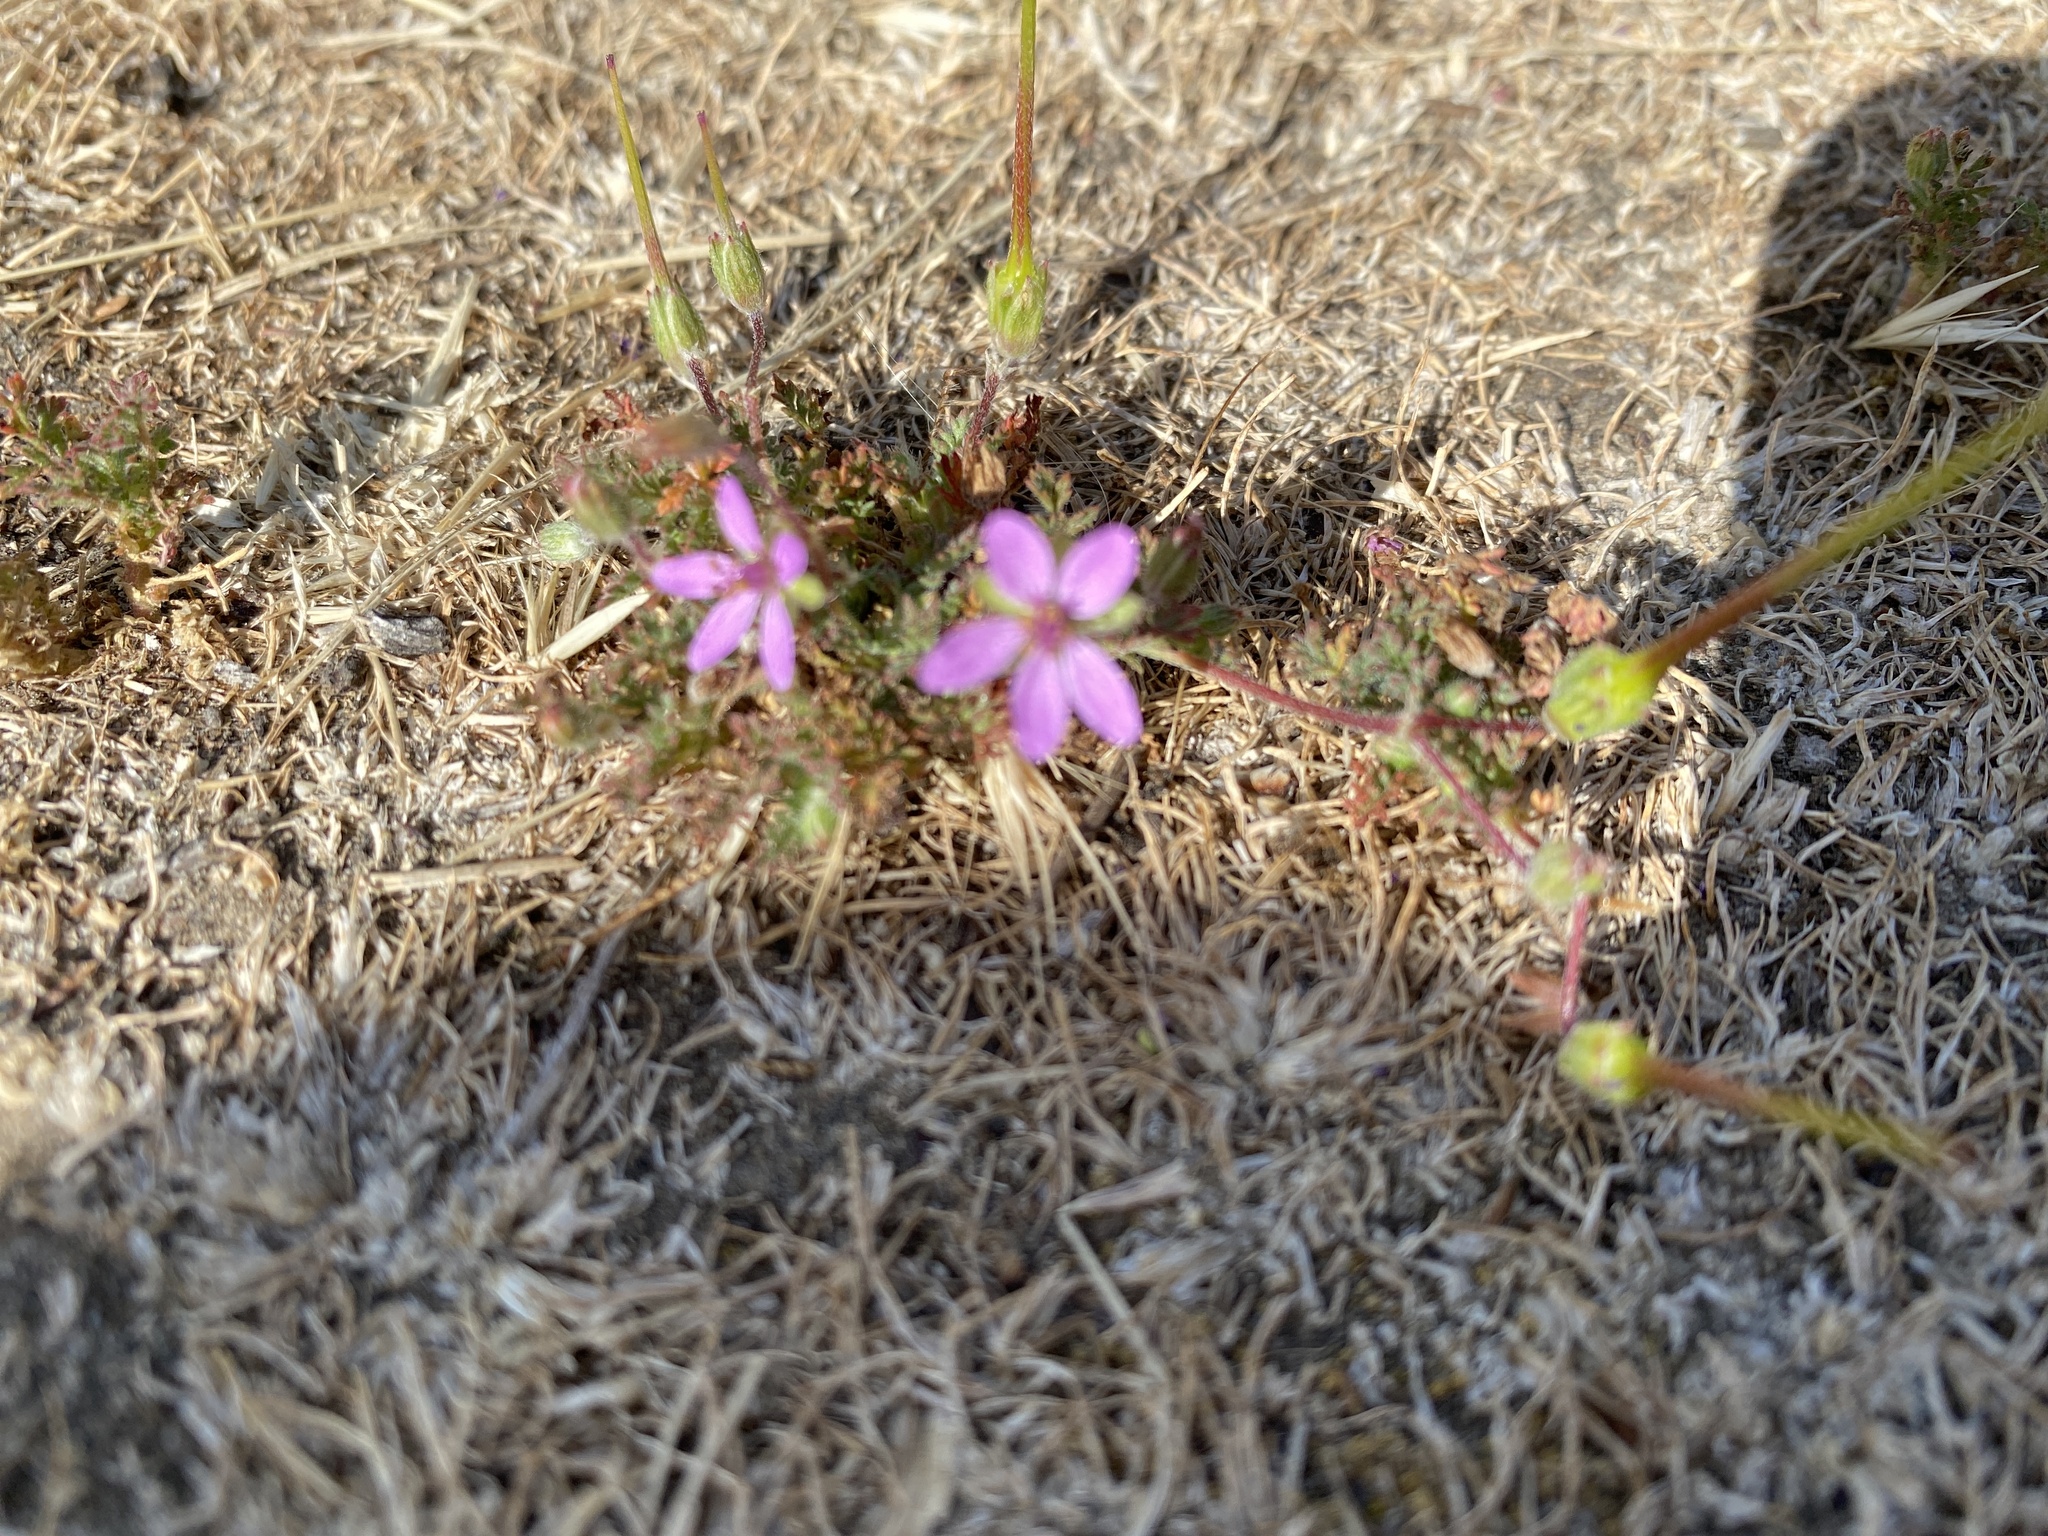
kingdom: Plantae
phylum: Tracheophyta
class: Magnoliopsida
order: Geraniales
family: Geraniaceae
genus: Erodium
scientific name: Erodium cicutarium
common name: Common stork's-bill
